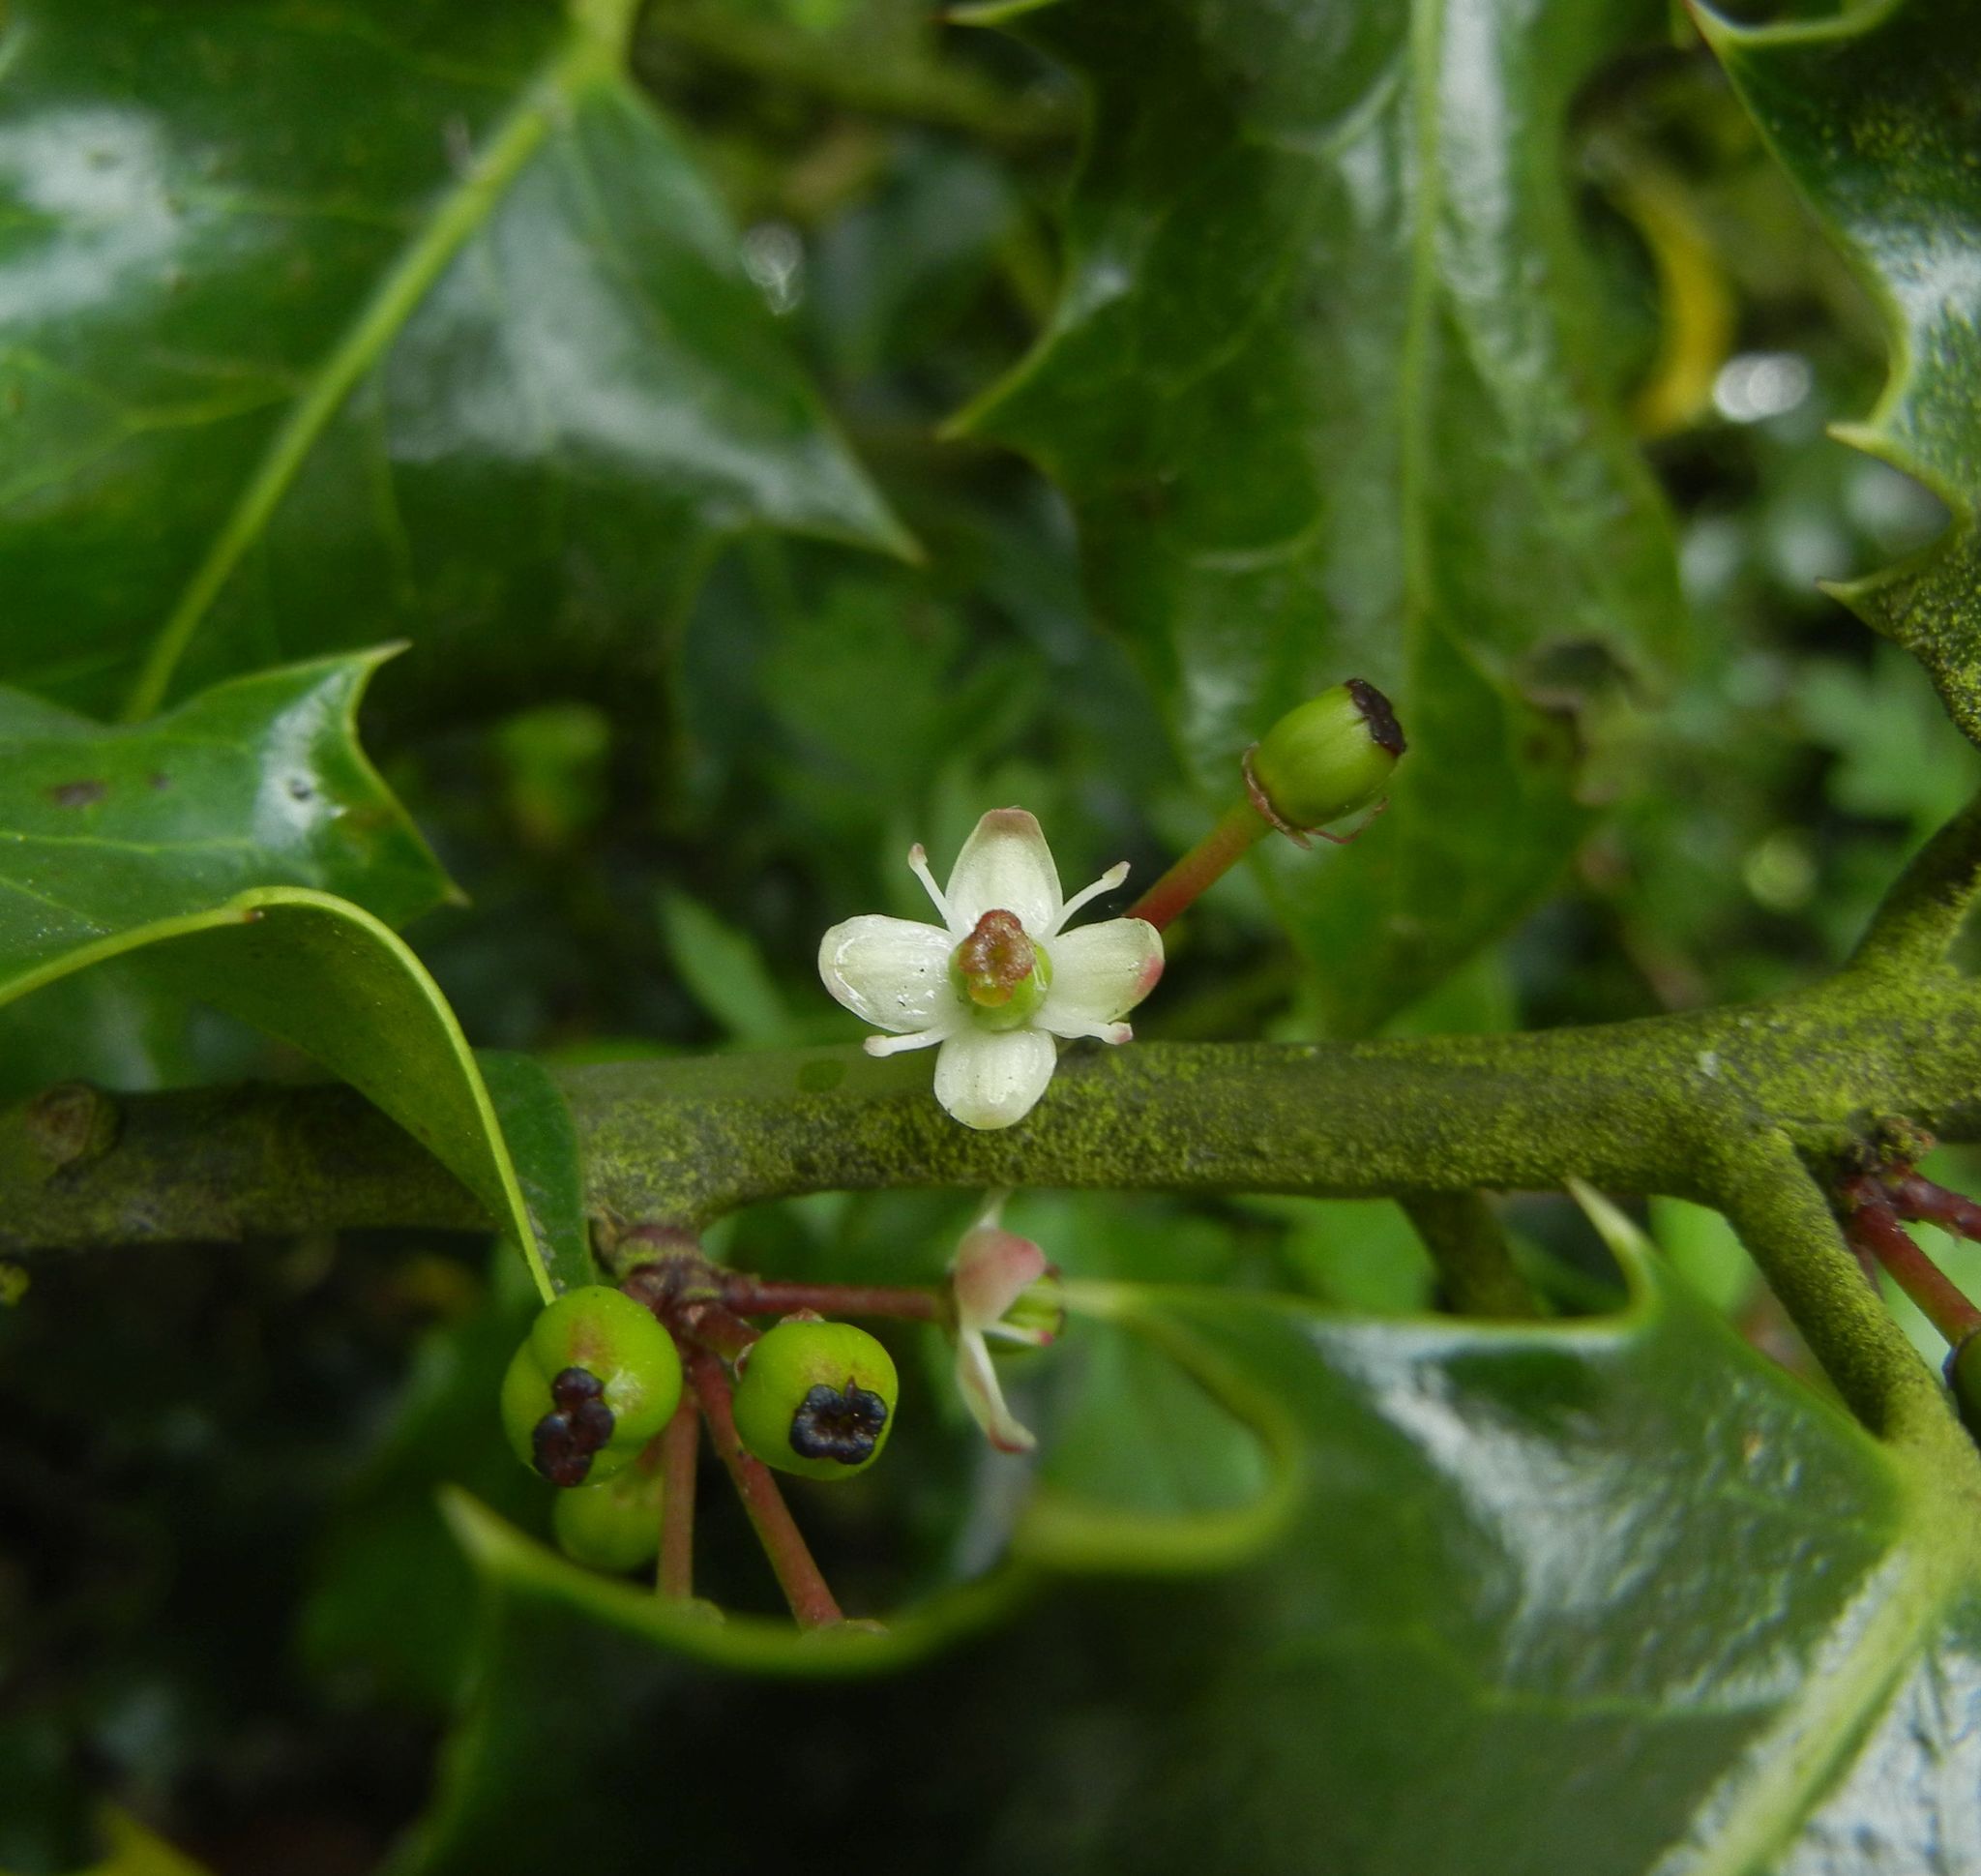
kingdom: Plantae
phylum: Tracheophyta
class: Magnoliopsida
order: Aquifoliales
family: Aquifoliaceae
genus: Ilex
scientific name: Ilex aquifolium
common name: English holly
